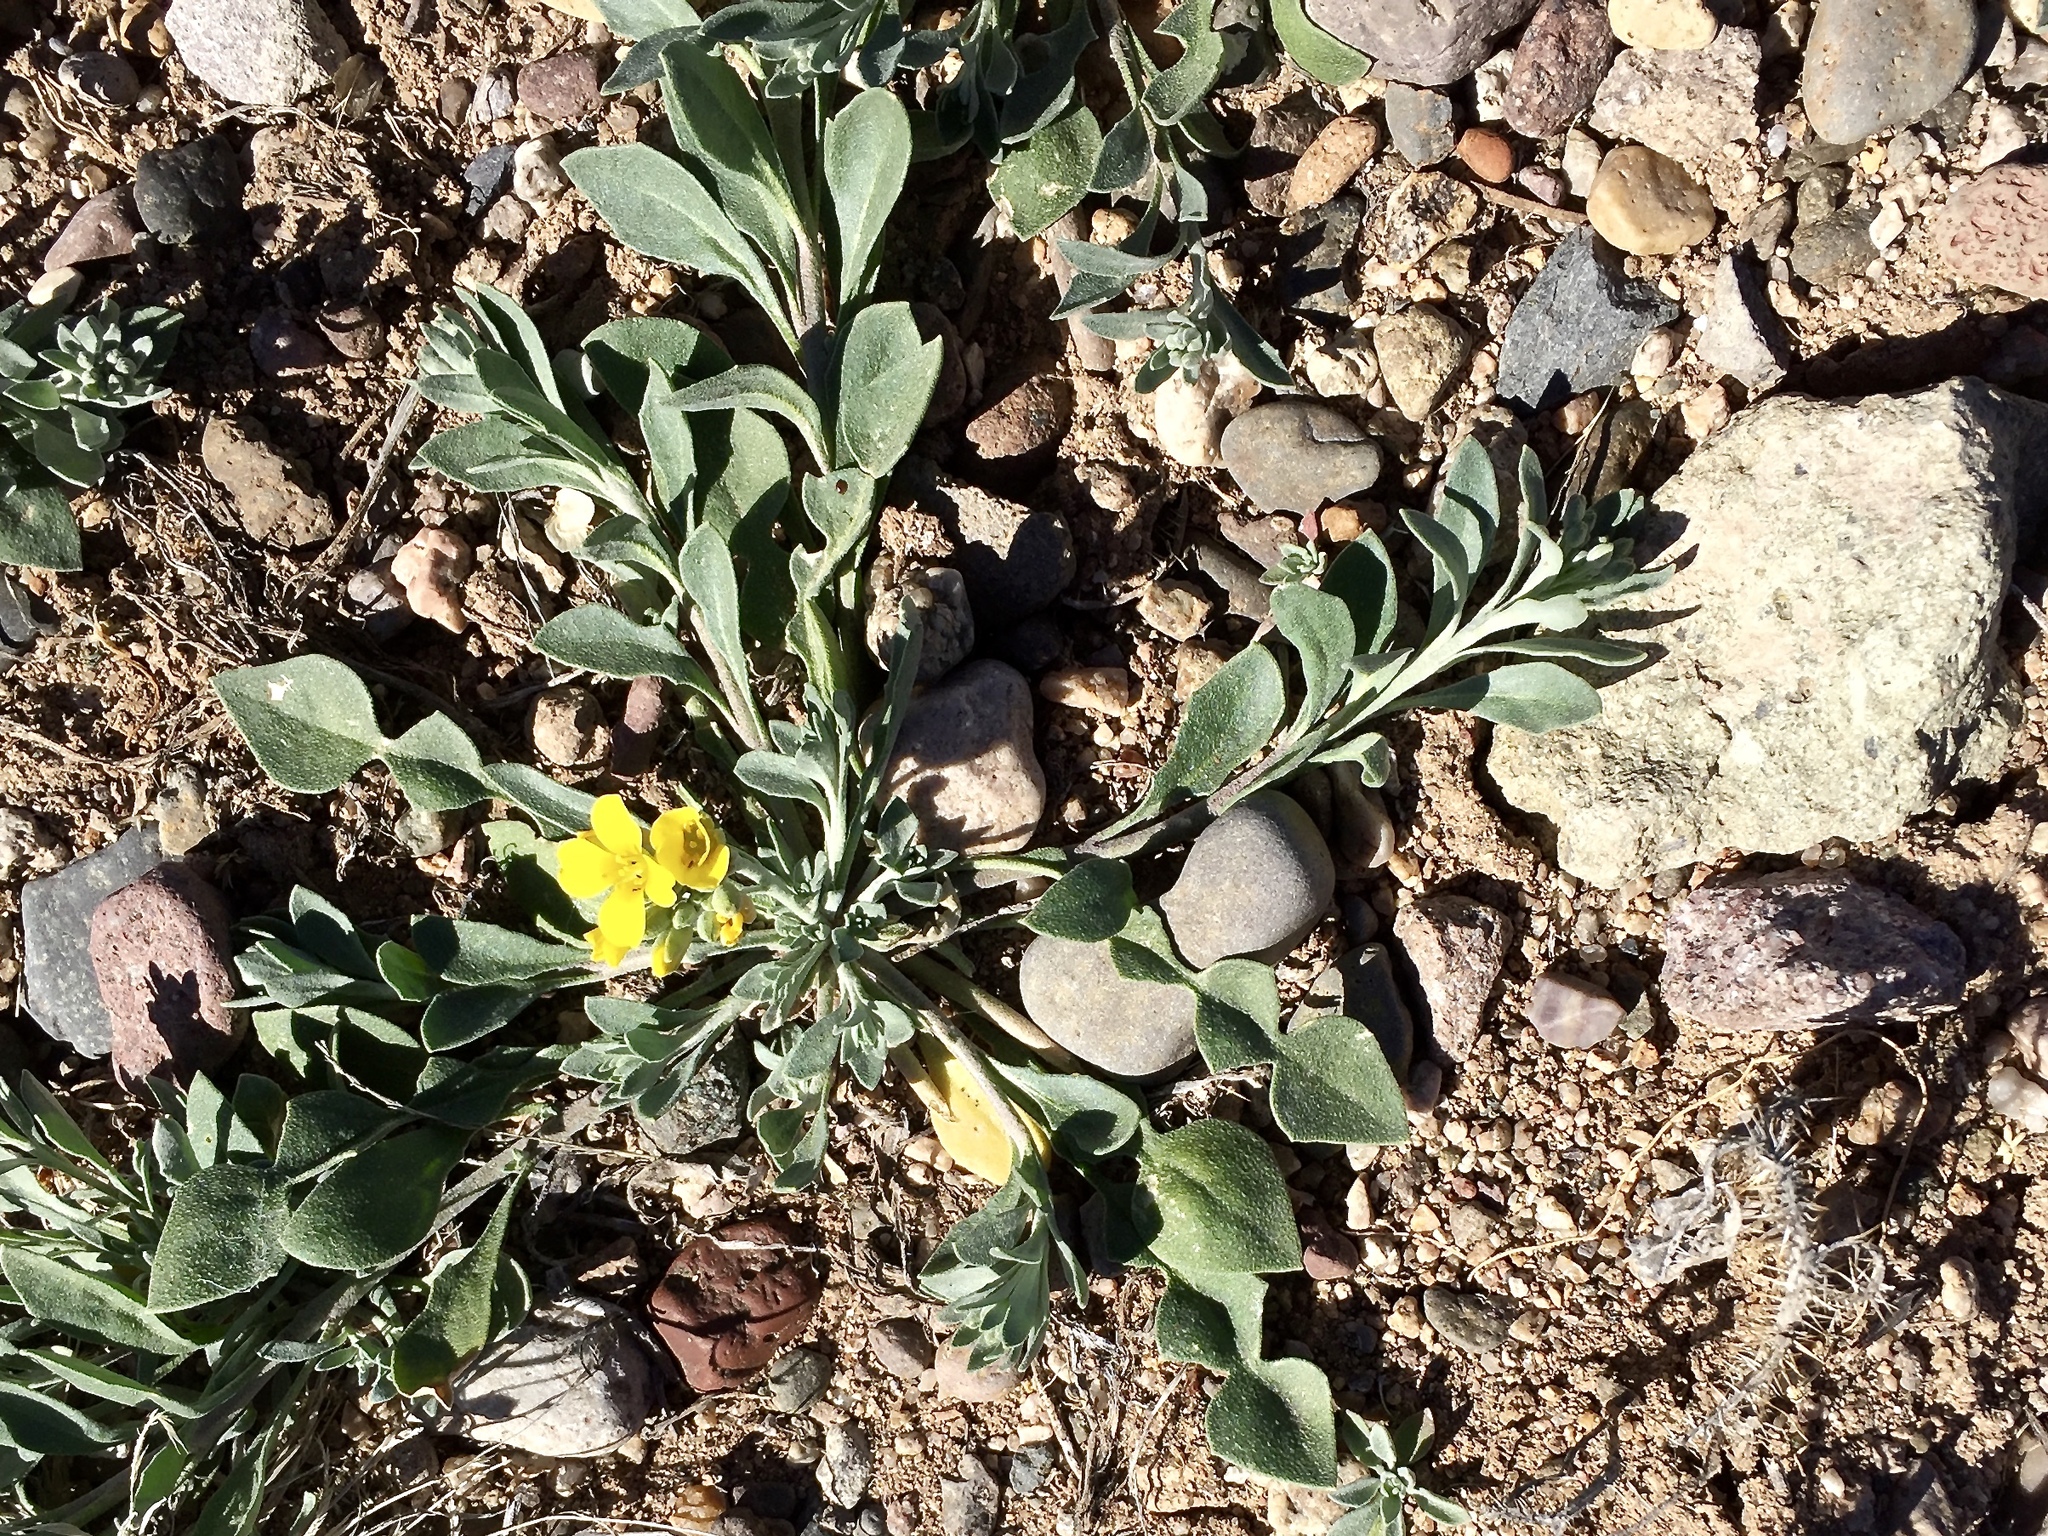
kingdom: Plantae
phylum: Tracheophyta
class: Magnoliopsida
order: Brassicales
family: Brassicaceae
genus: Physaria
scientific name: Physaria gordonii
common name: Gordon's bladderpod
